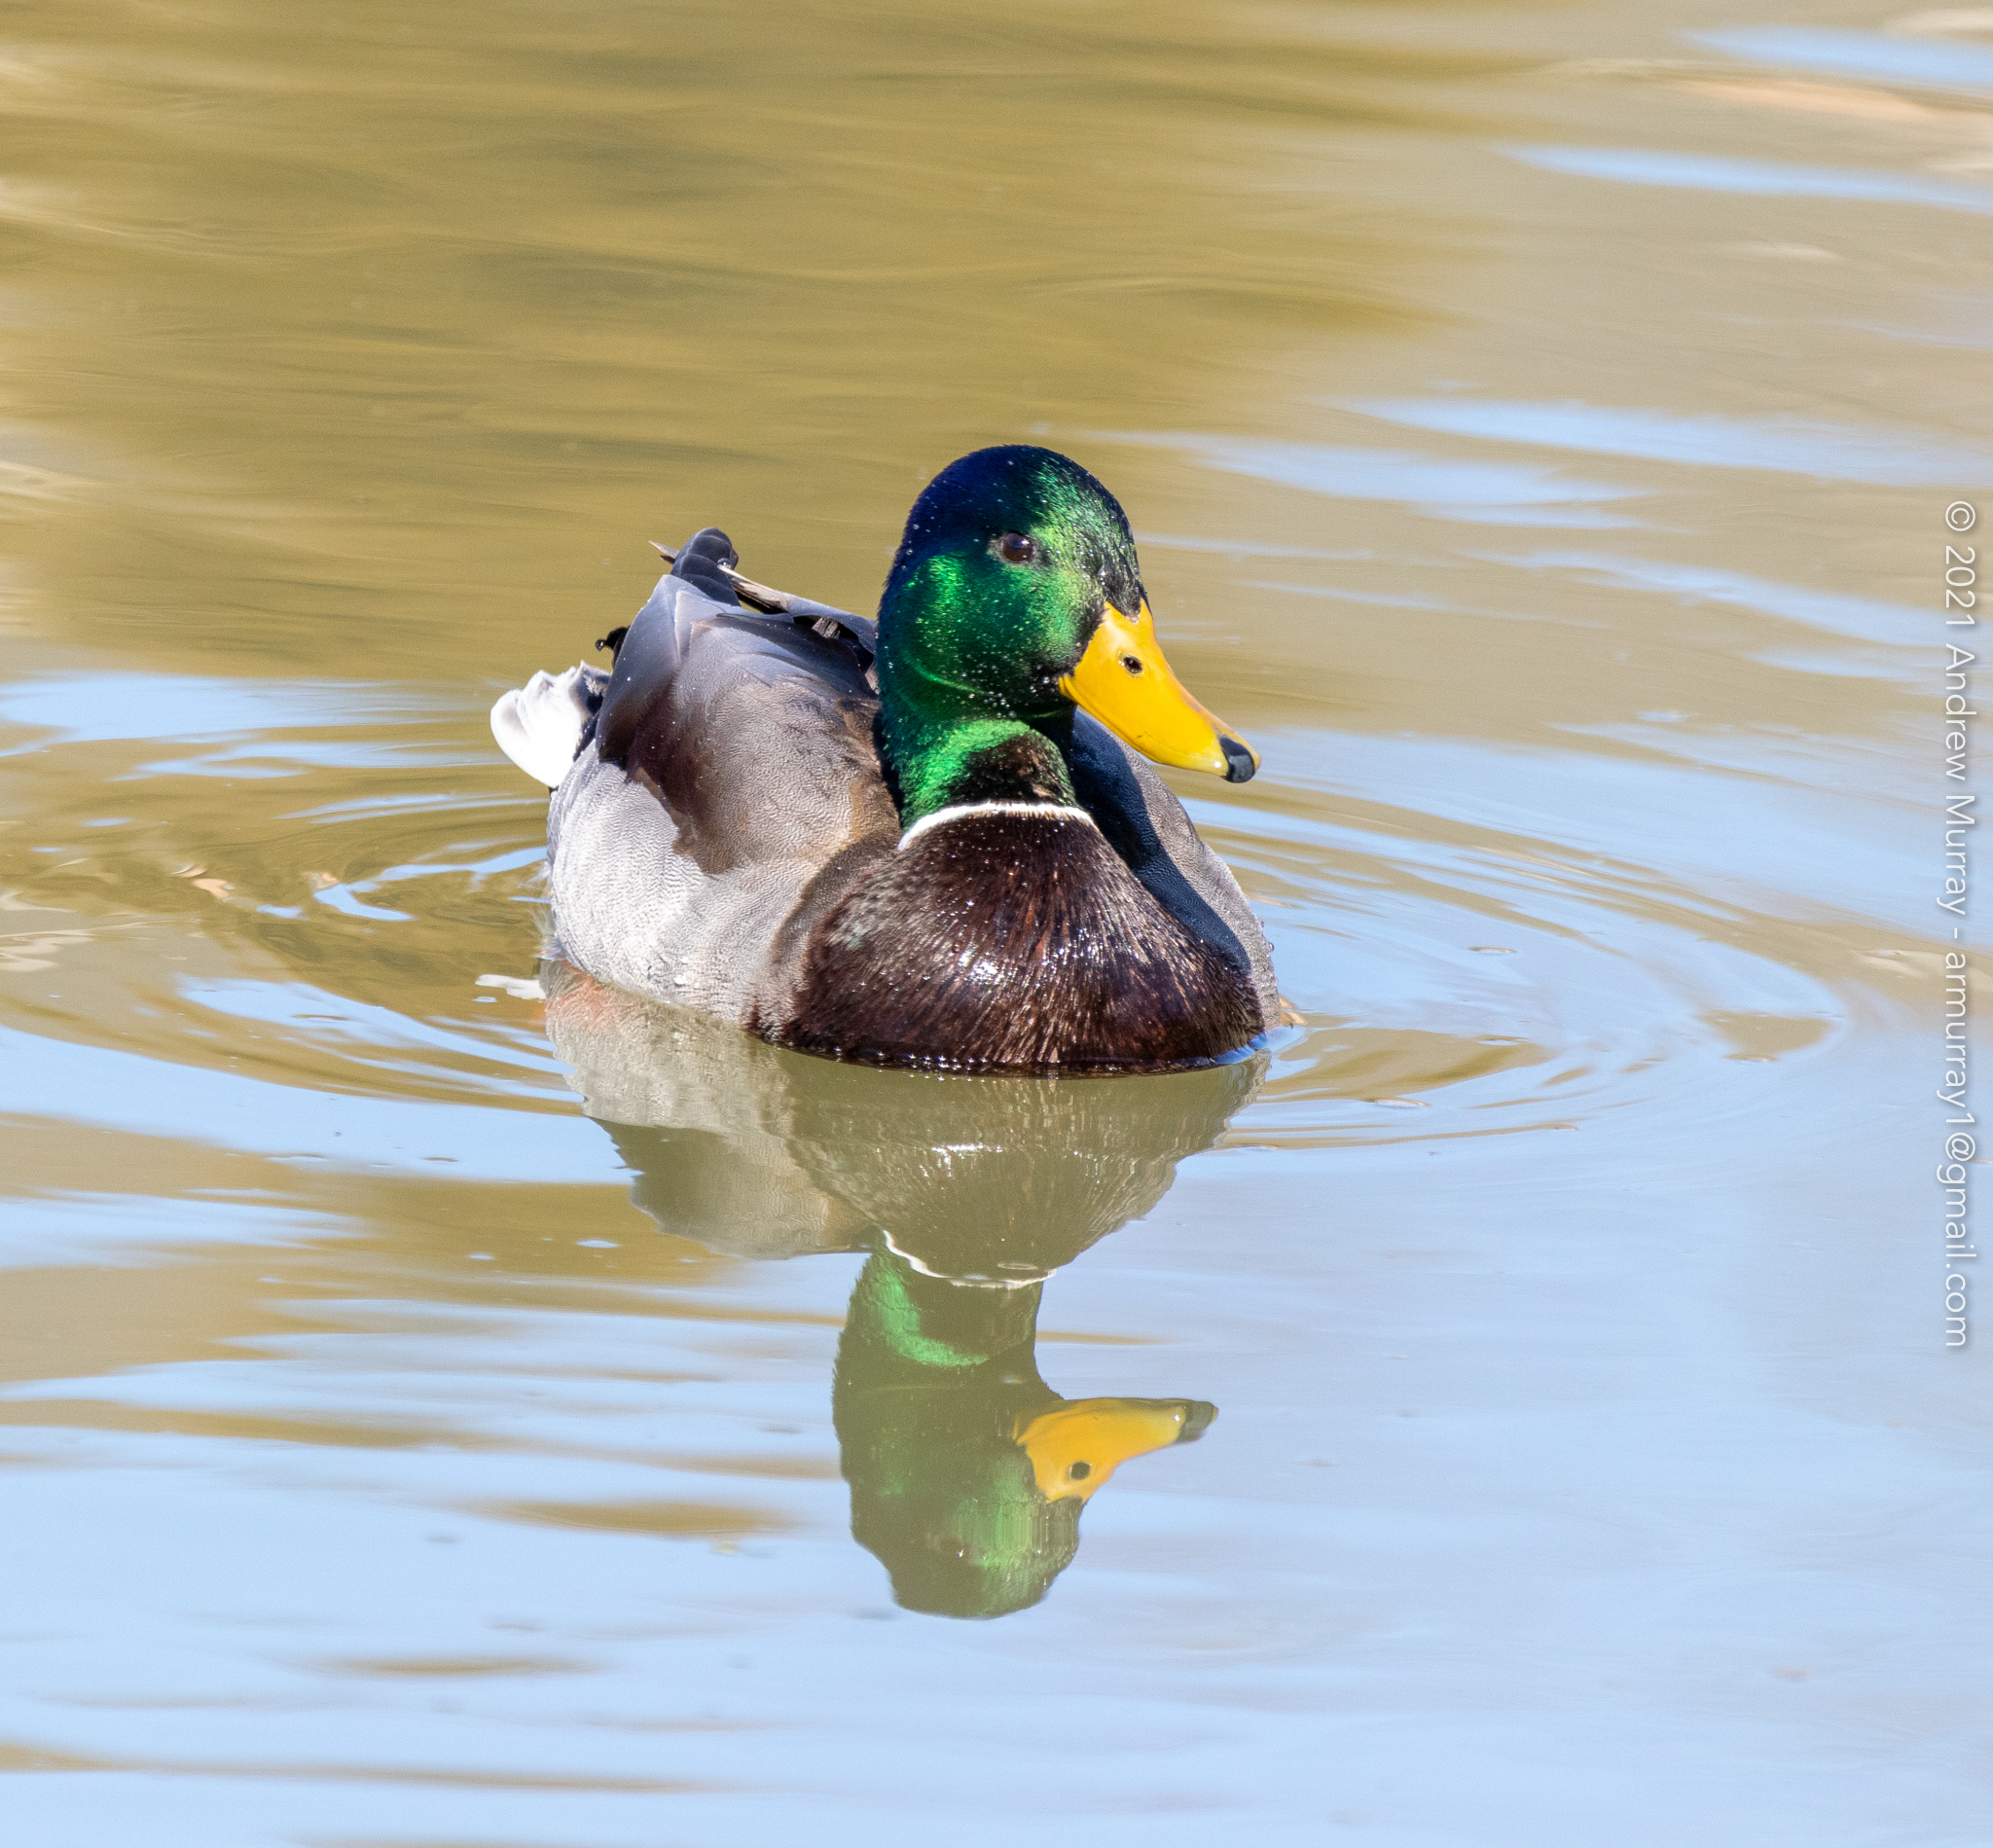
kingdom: Animalia
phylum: Chordata
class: Aves
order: Anseriformes
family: Anatidae
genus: Anas
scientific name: Anas platyrhynchos
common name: Mallard
